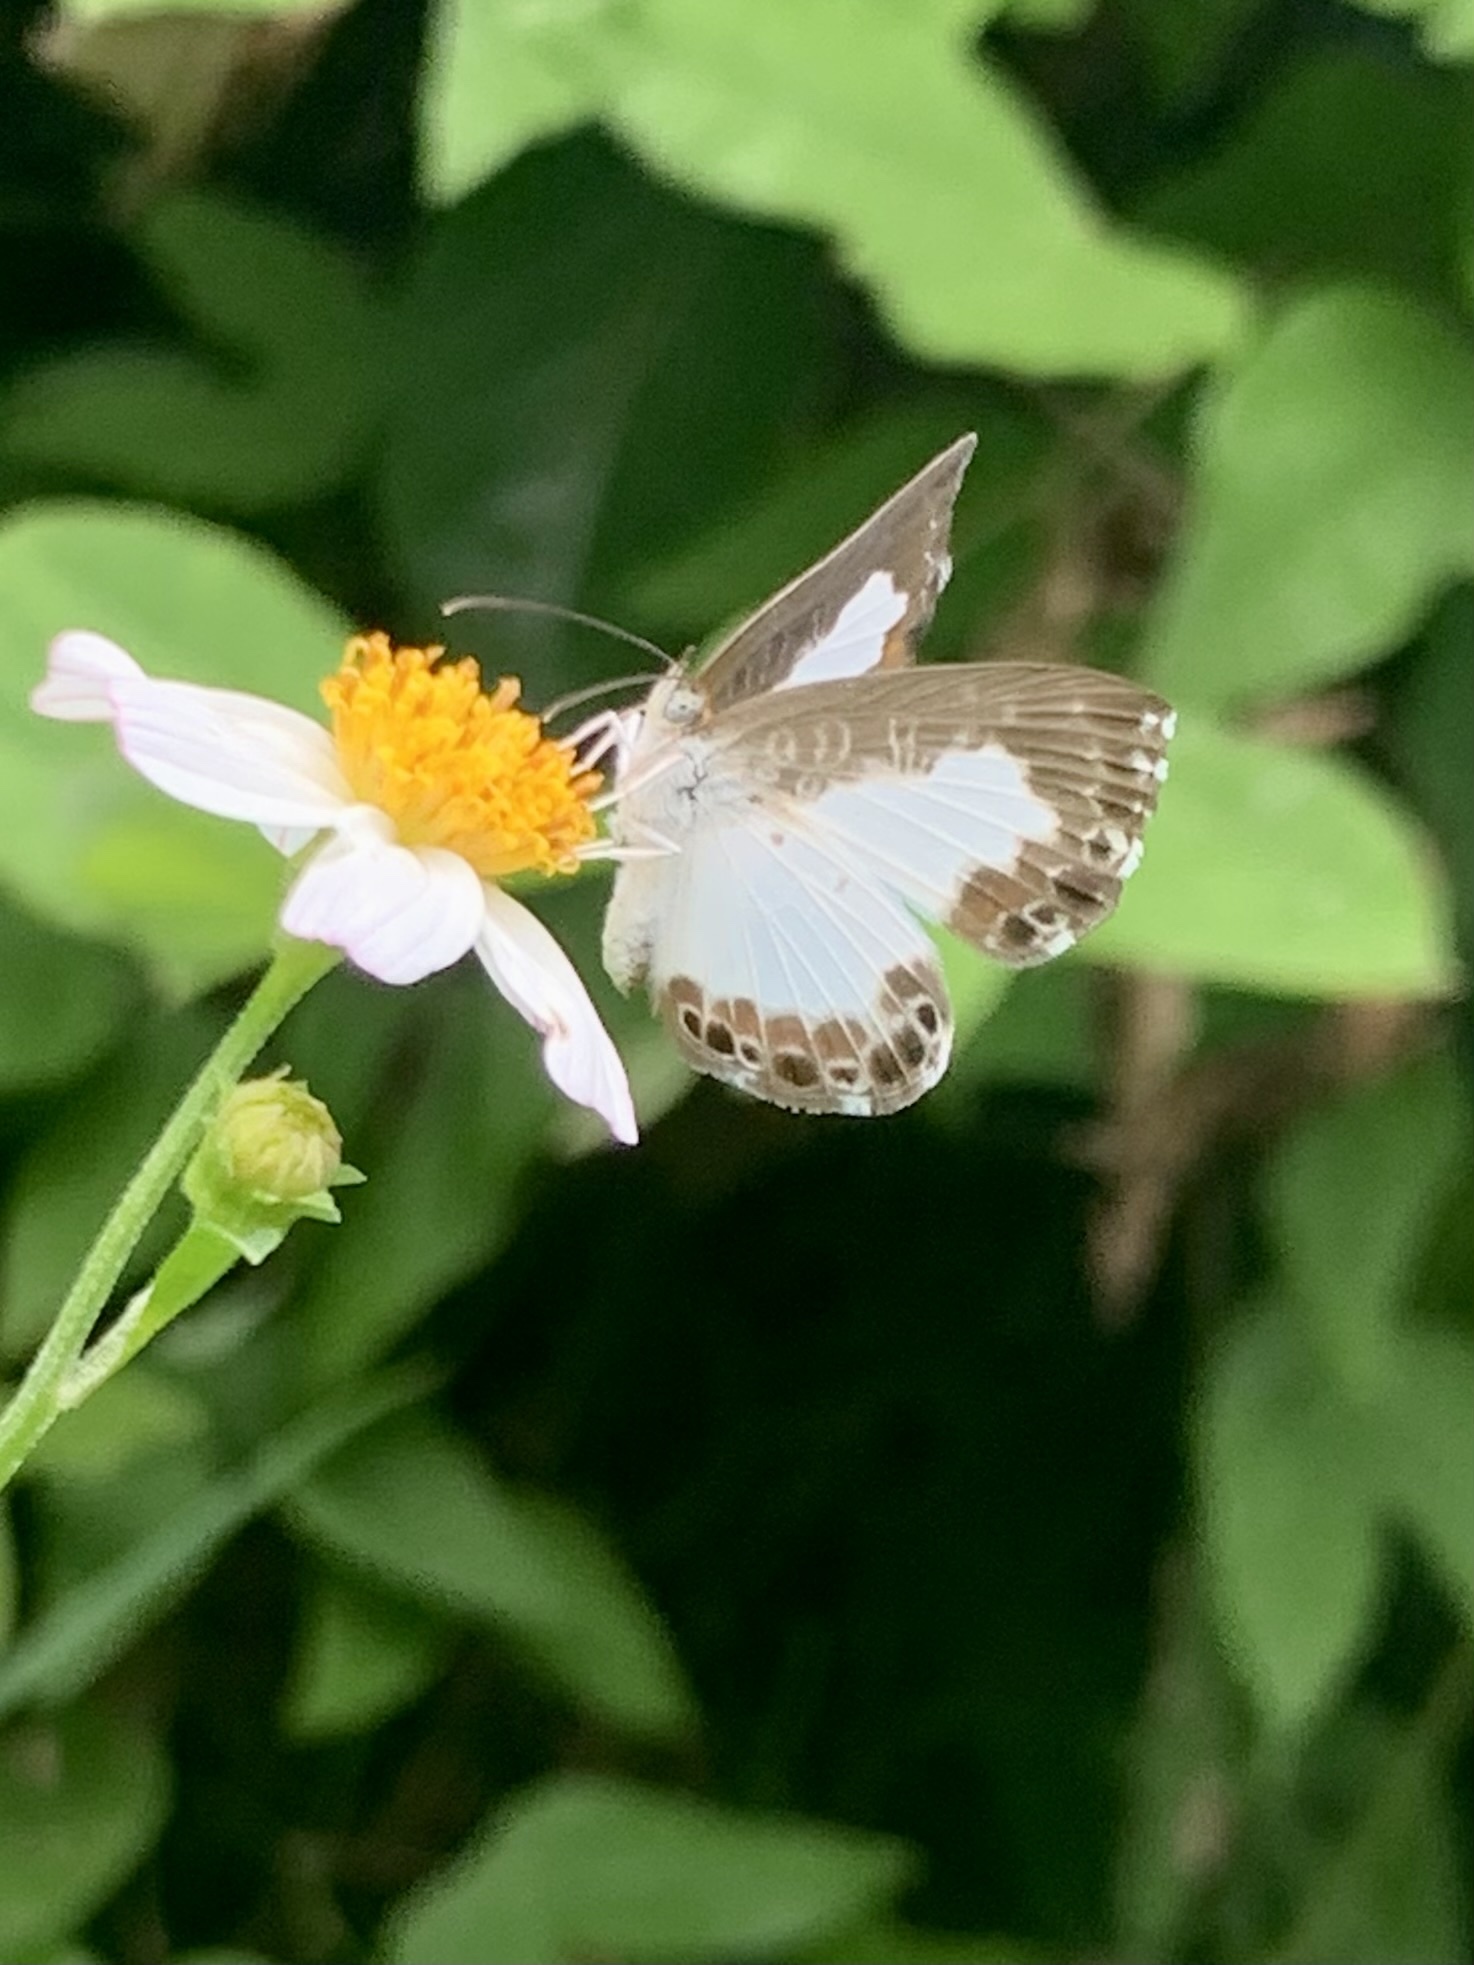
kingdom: Animalia
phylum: Arthropoda
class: Insecta
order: Lepidoptera
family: Riodinidae
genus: Juditha
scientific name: Juditha caucana
